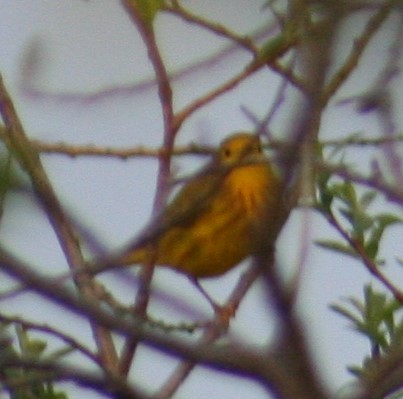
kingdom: Animalia
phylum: Chordata
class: Aves
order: Passeriformes
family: Parulidae
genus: Setophaga
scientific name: Setophaga petechia
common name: Yellow warbler
